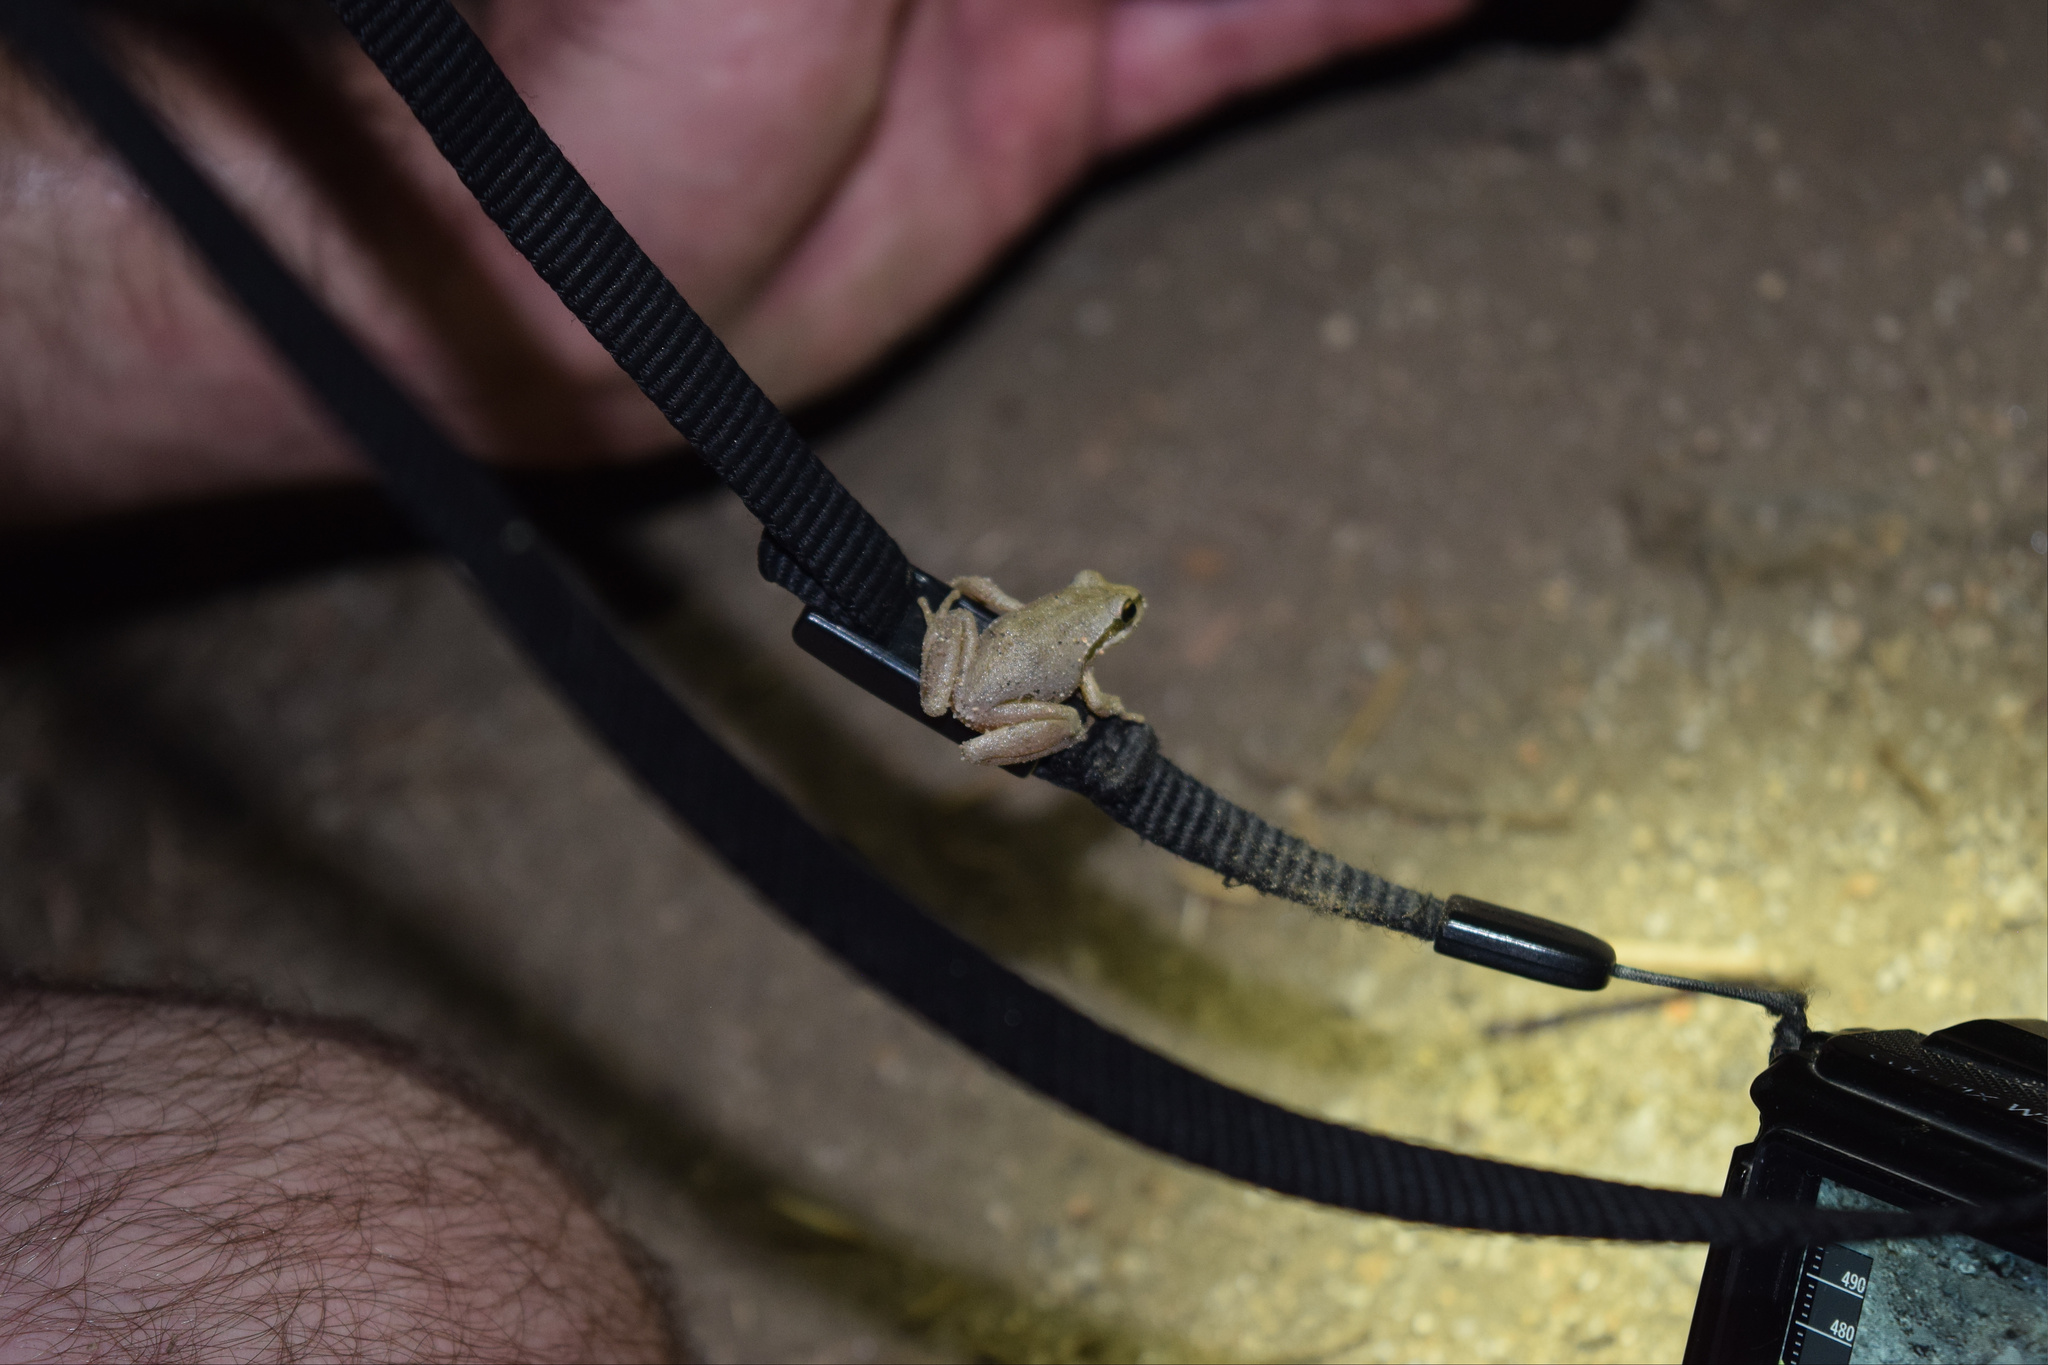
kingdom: Animalia
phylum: Chordata
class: Amphibia
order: Anura
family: Hylidae
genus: Pseudacris
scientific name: Pseudacris regilla
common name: Pacific chorus frog
